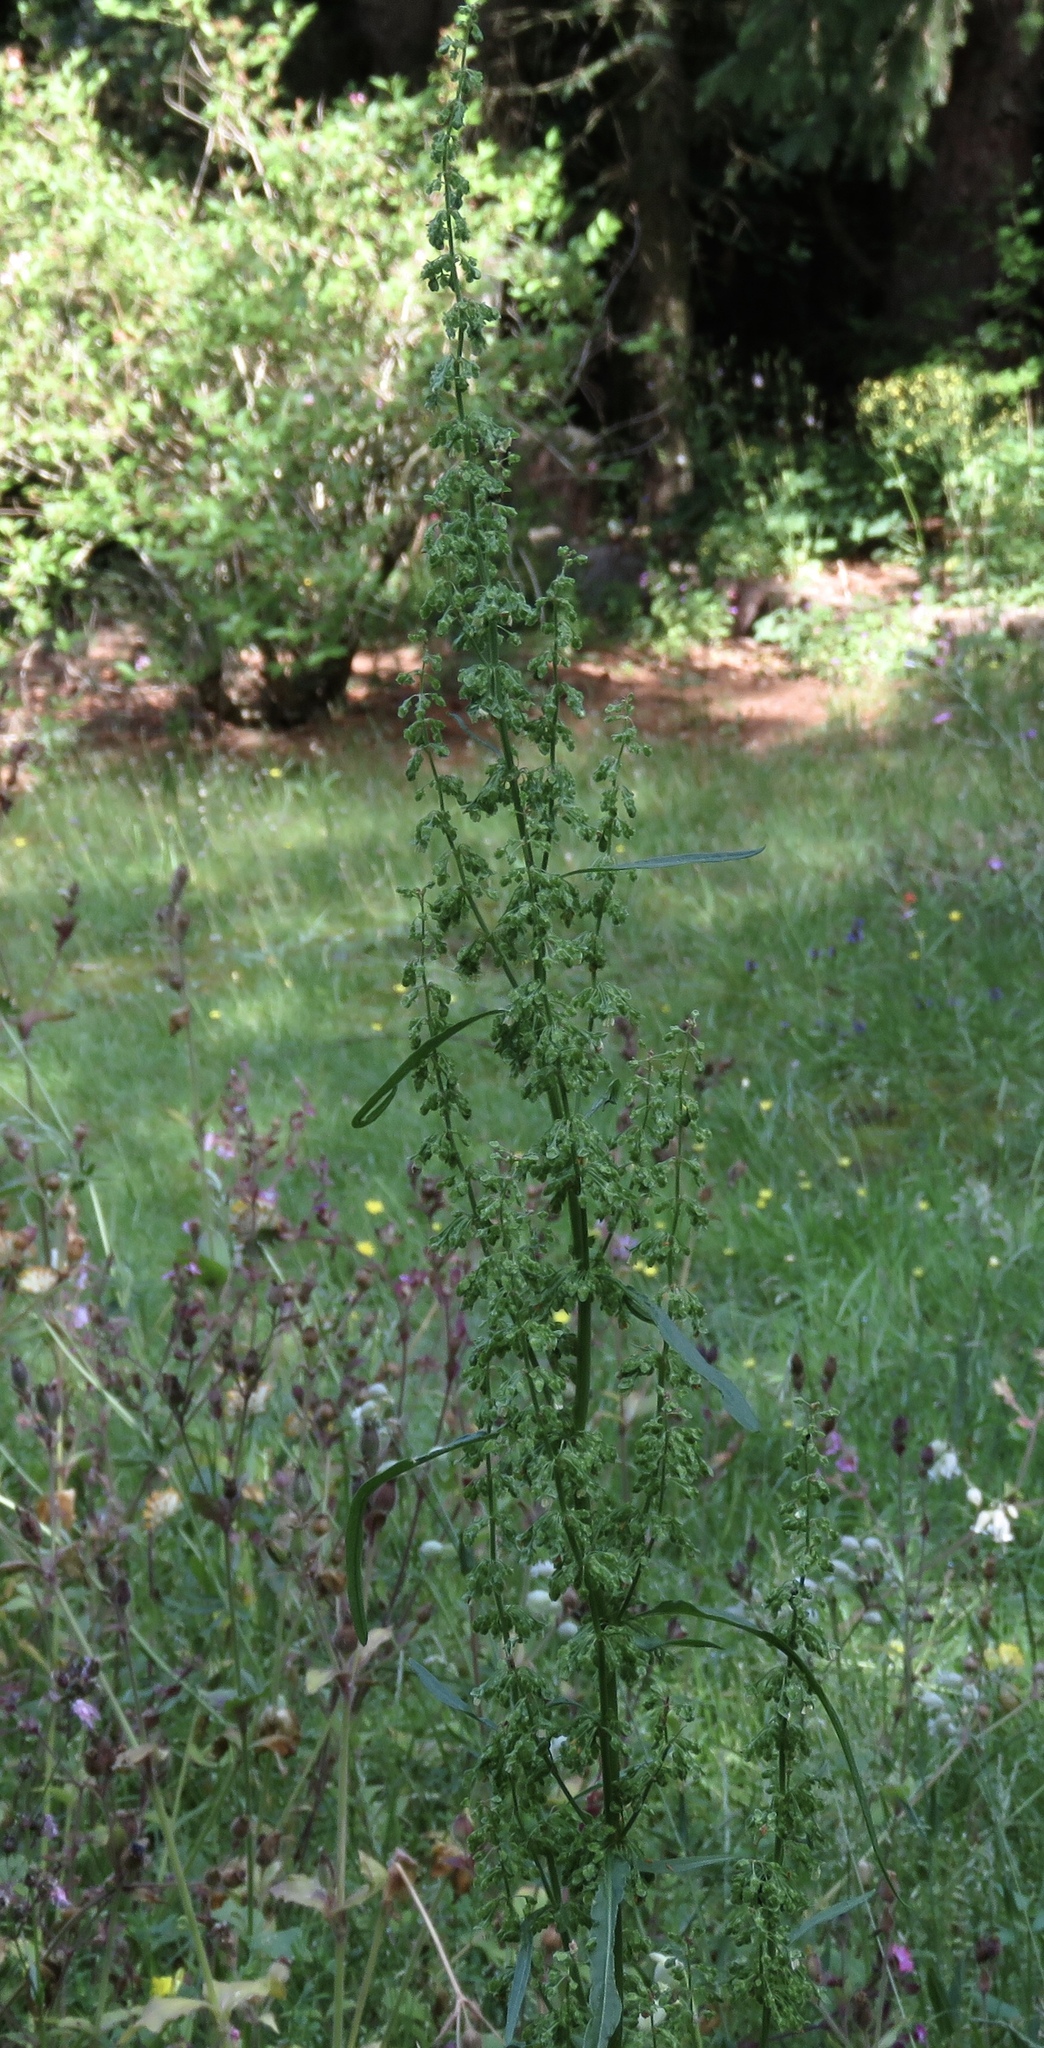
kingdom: Plantae
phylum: Tracheophyta
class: Magnoliopsida
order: Caryophyllales
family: Polygonaceae
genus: Rumex
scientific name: Rumex crispus
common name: Curled dock
